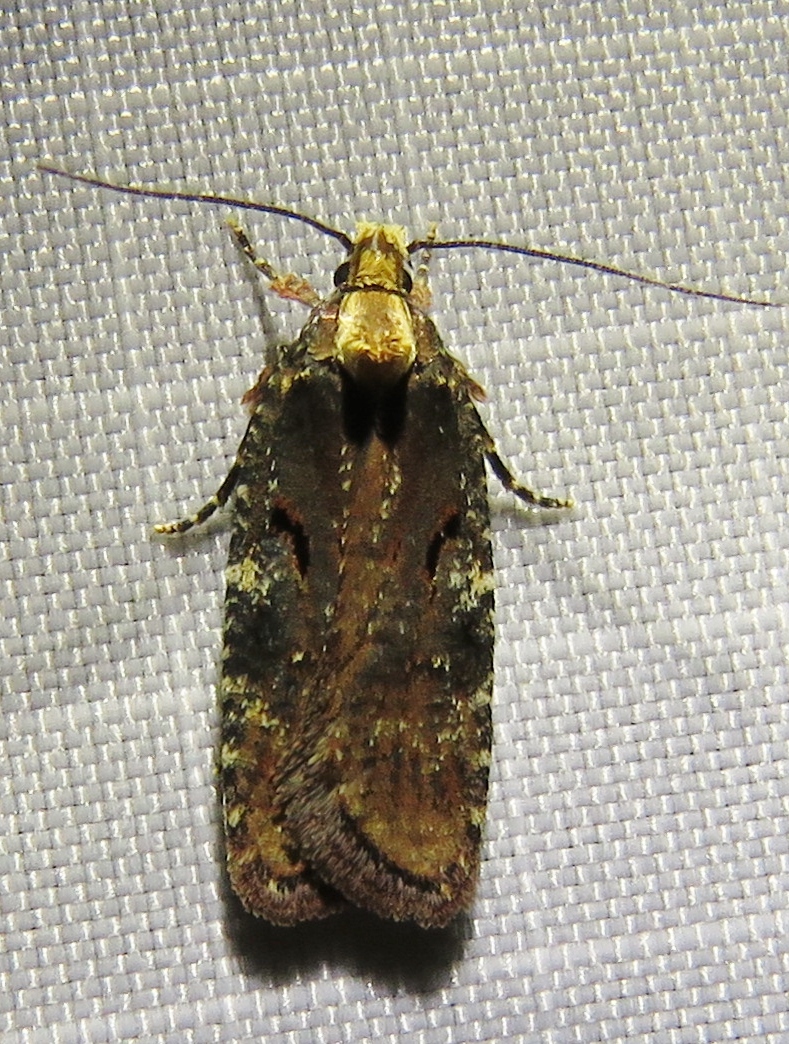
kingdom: Animalia
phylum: Arthropoda
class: Insecta
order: Lepidoptera
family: Depressariidae
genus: Agonopterix
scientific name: Agonopterix liturosa
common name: Large purple flat-body
